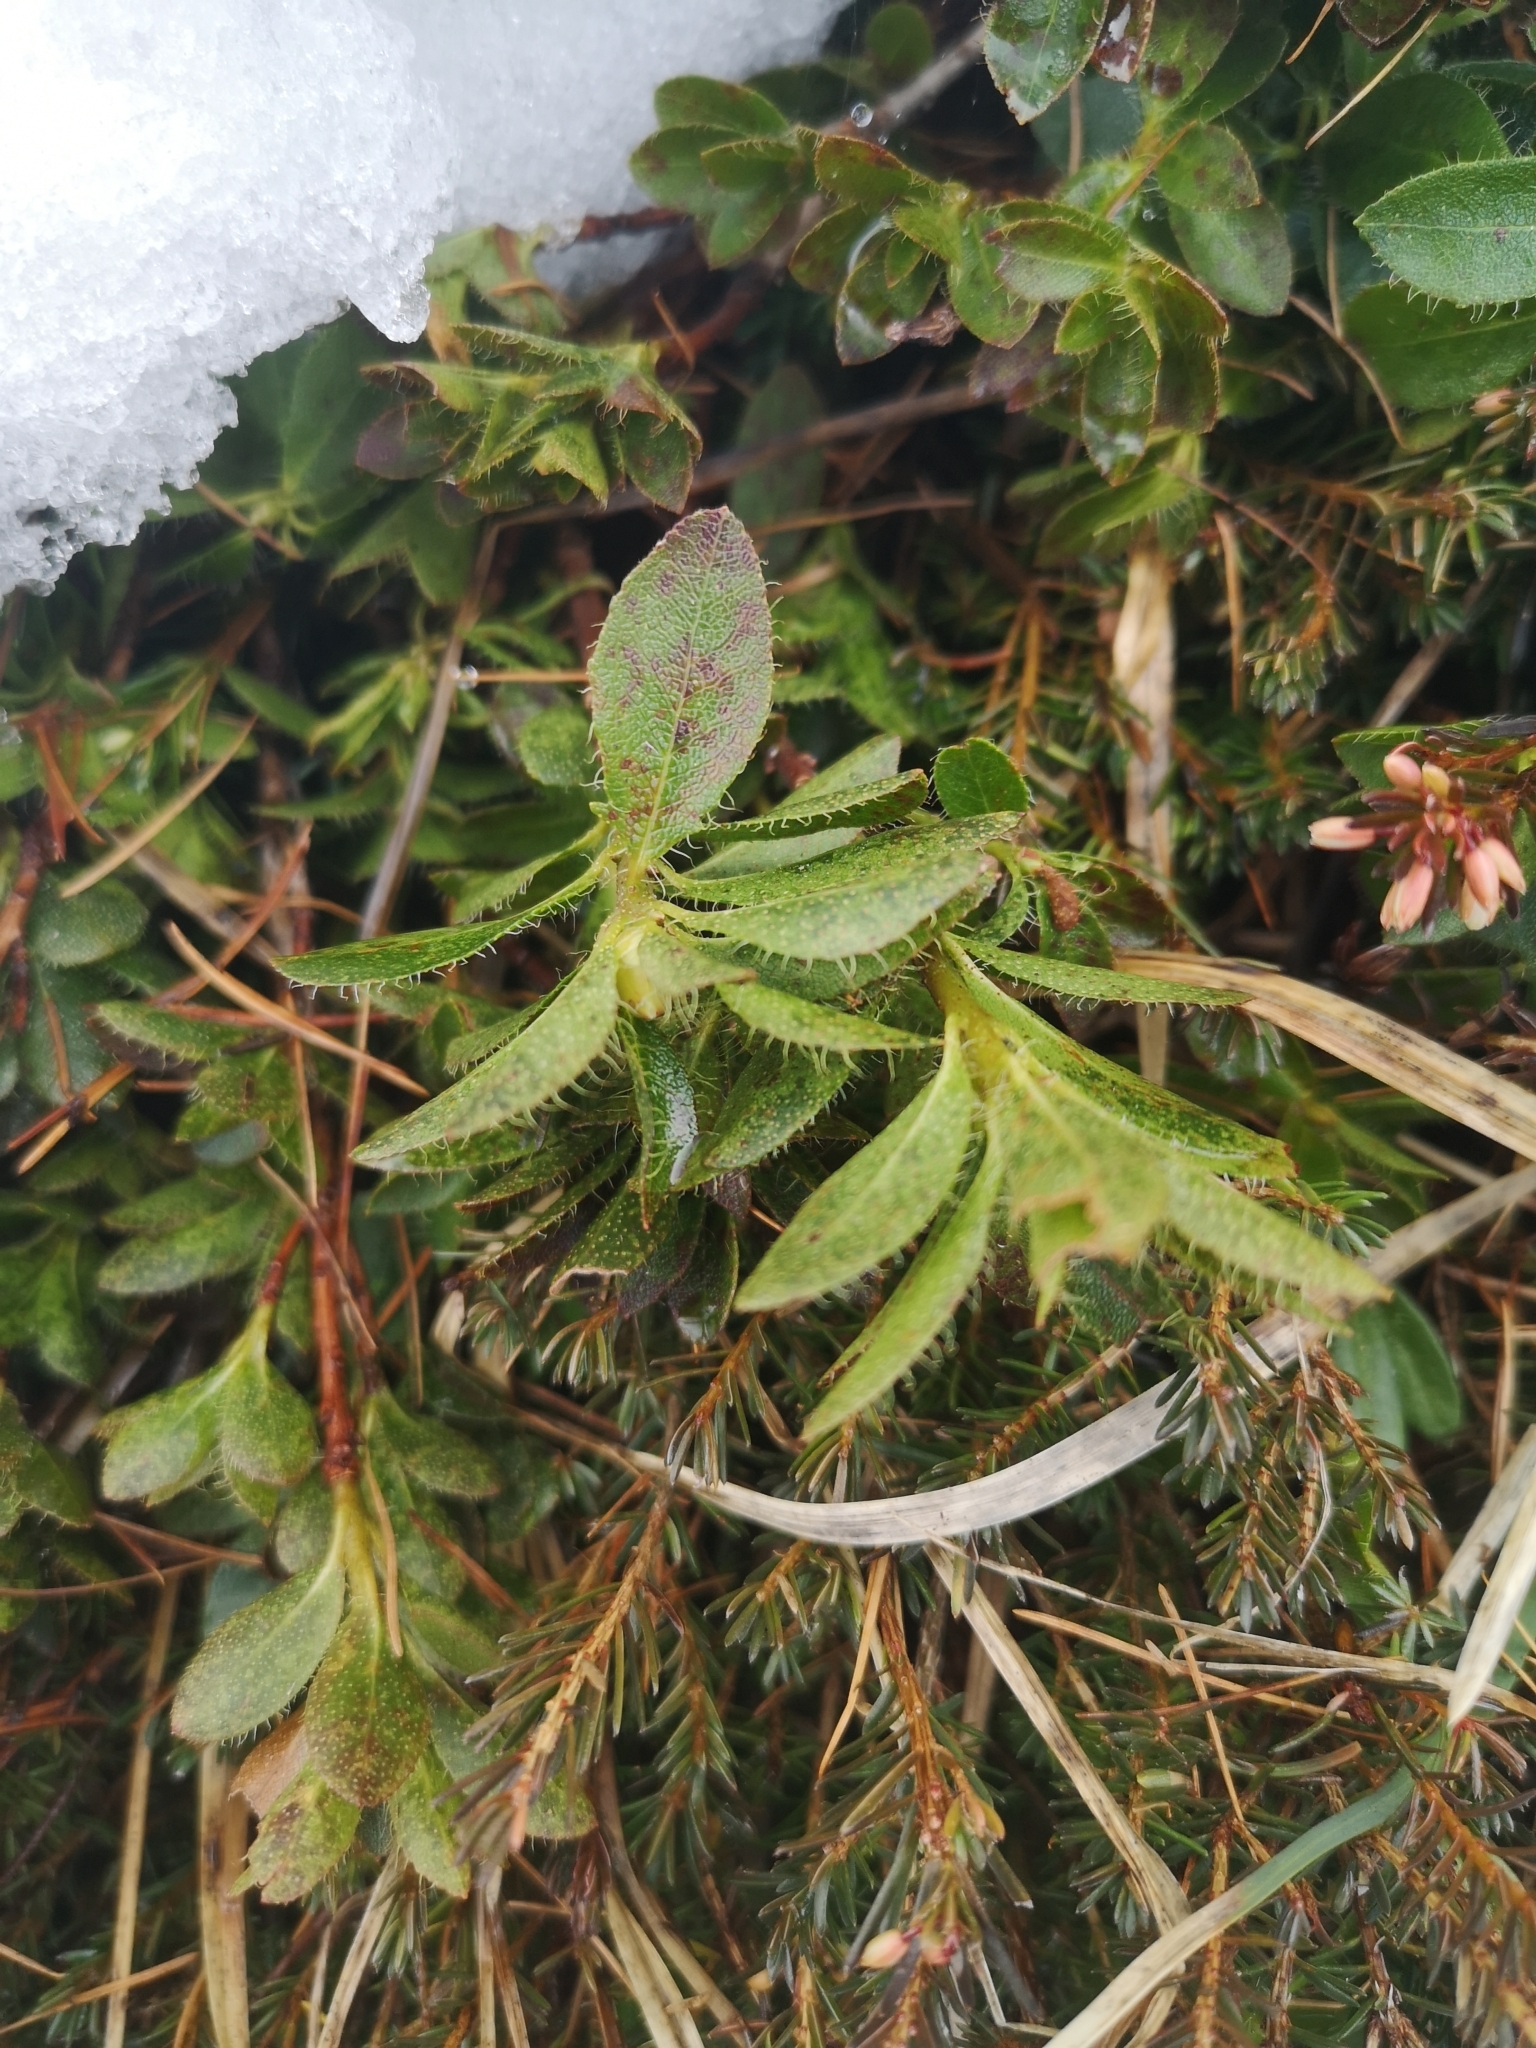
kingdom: Plantae
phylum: Tracheophyta
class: Magnoliopsida
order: Ericales
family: Ericaceae
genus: Rhododendron
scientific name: Rhododendron hirsutum
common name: Hairy alpenrose
